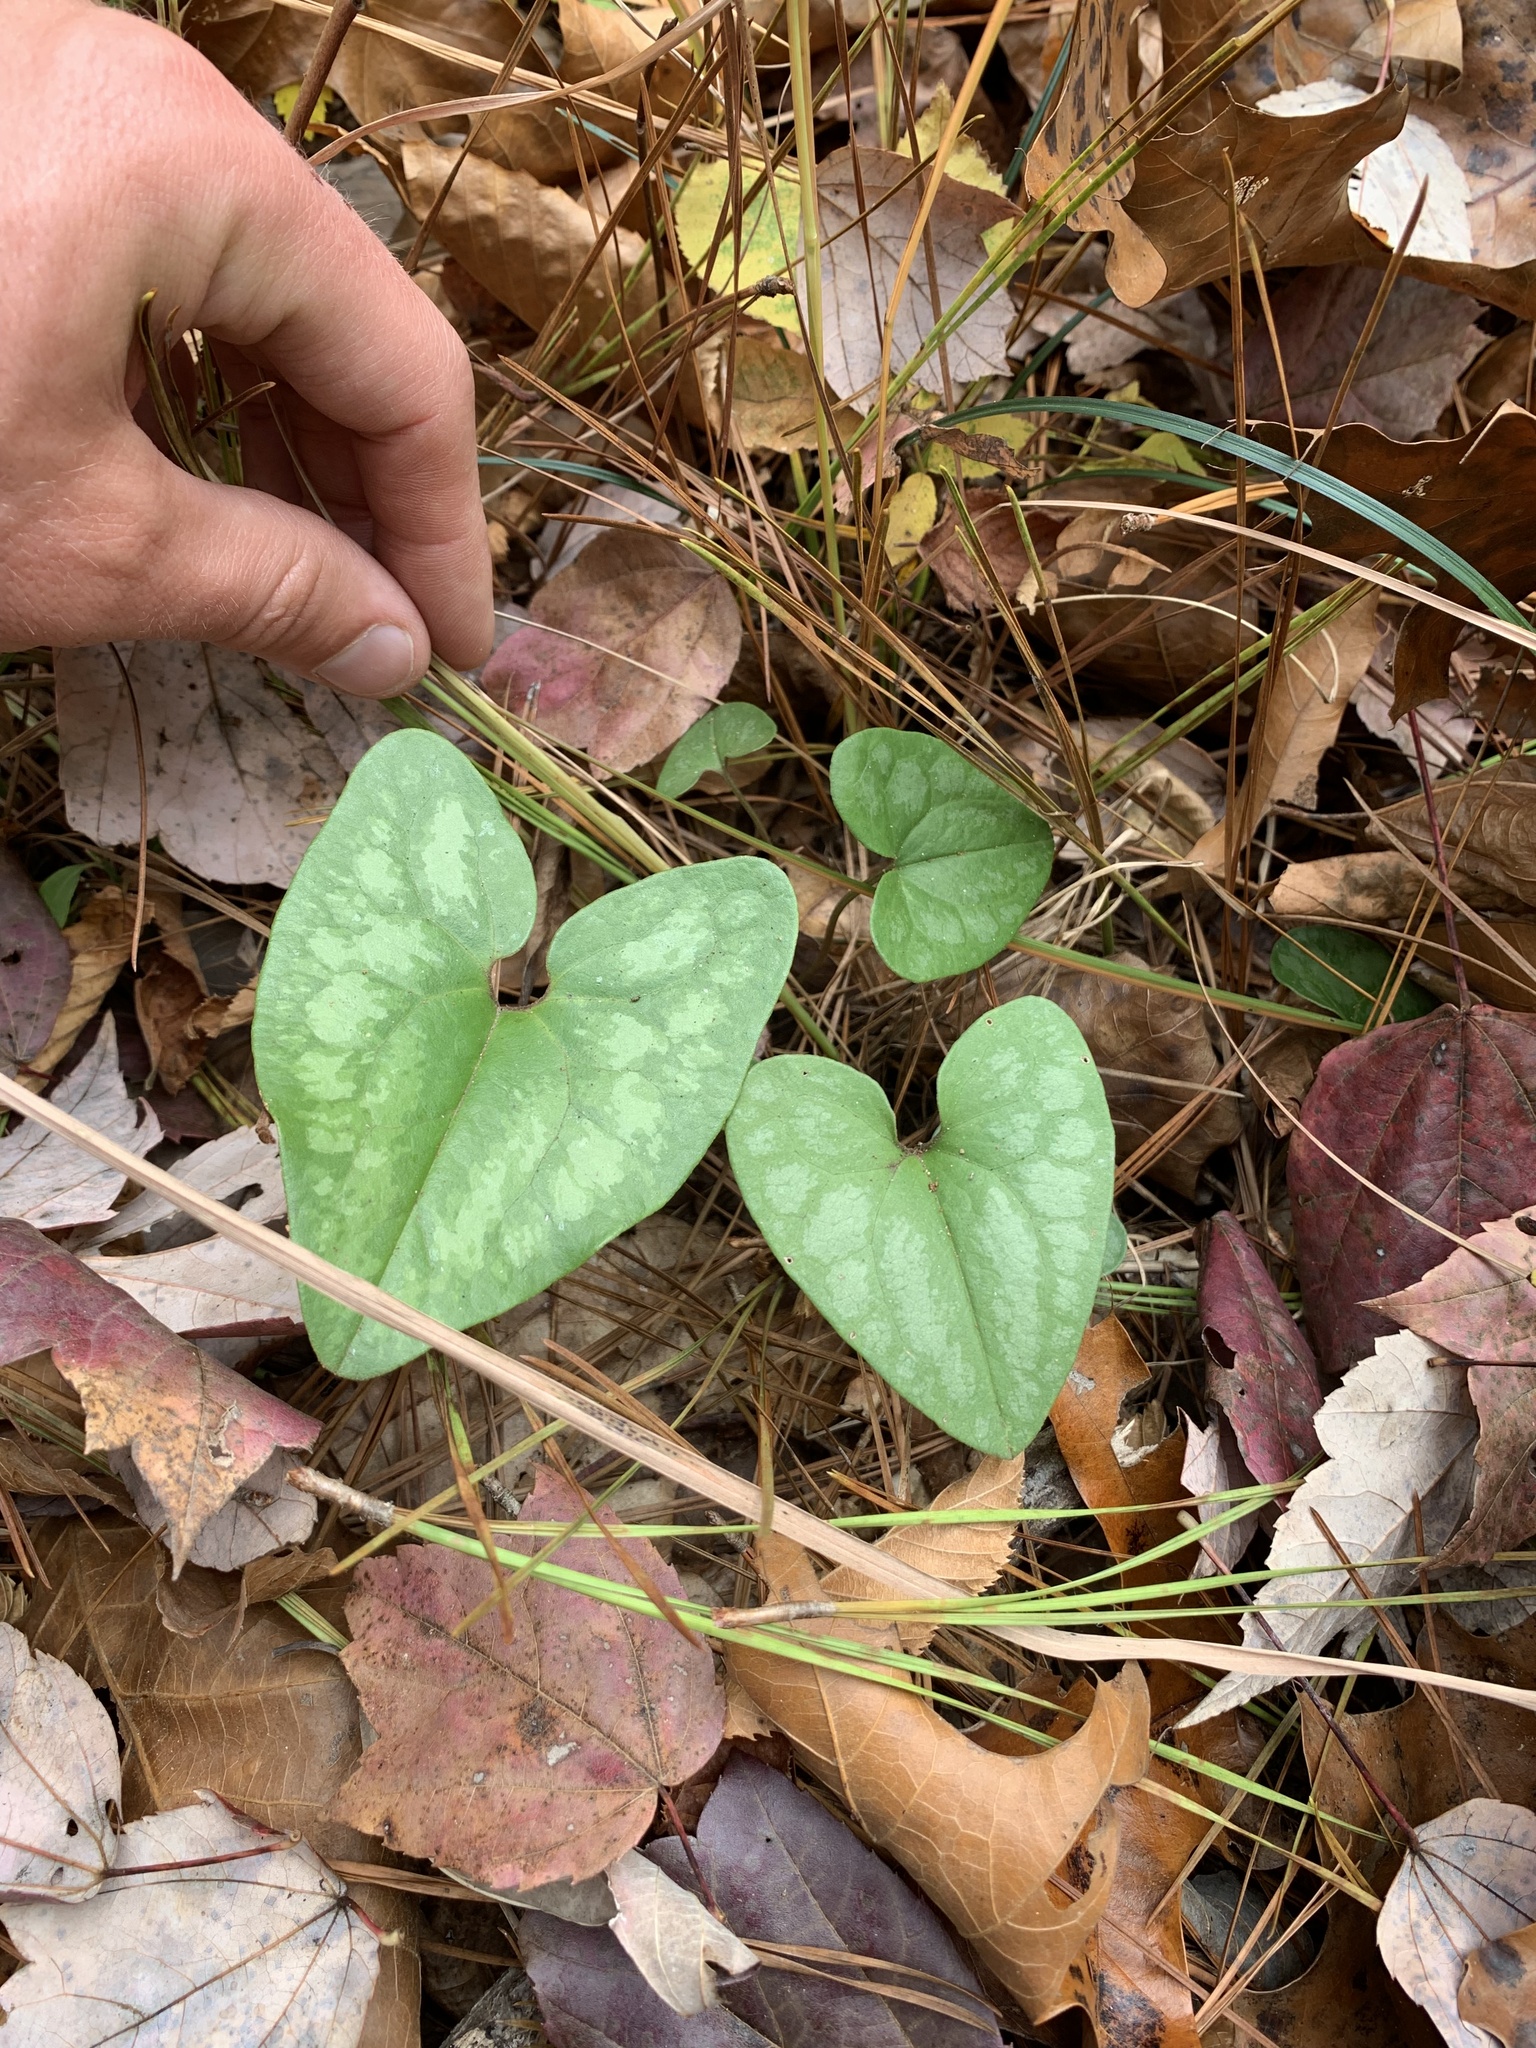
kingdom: Plantae
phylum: Tracheophyta
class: Magnoliopsida
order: Piperales
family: Aristolochiaceae
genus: Hexastylis
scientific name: Hexastylis arifolia
